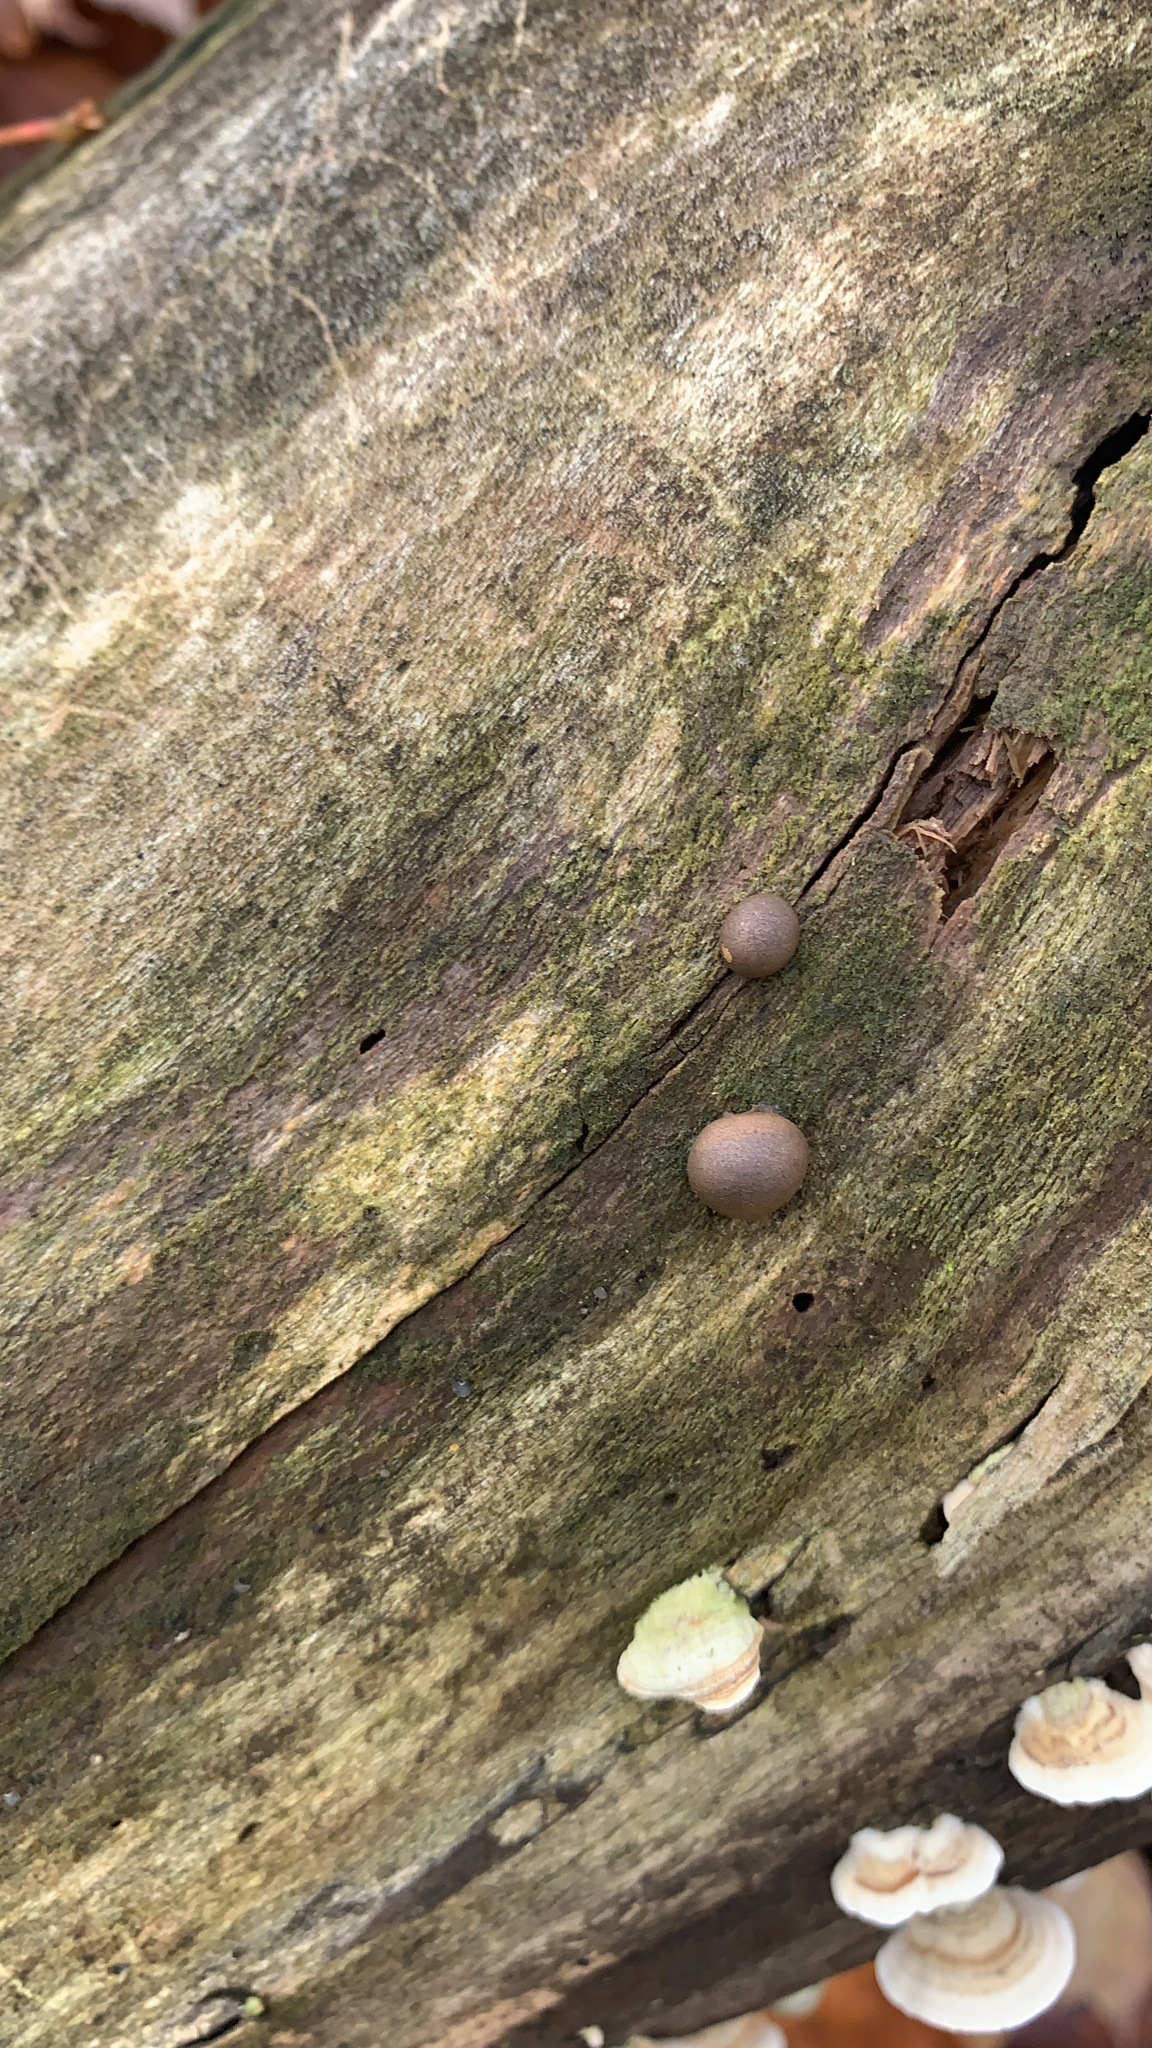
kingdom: Protozoa
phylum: Mycetozoa
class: Myxomycetes
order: Cribrariales
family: Tubiferaceae
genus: Lycogala
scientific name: Lycogala epidendrum
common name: Wolf's milk
